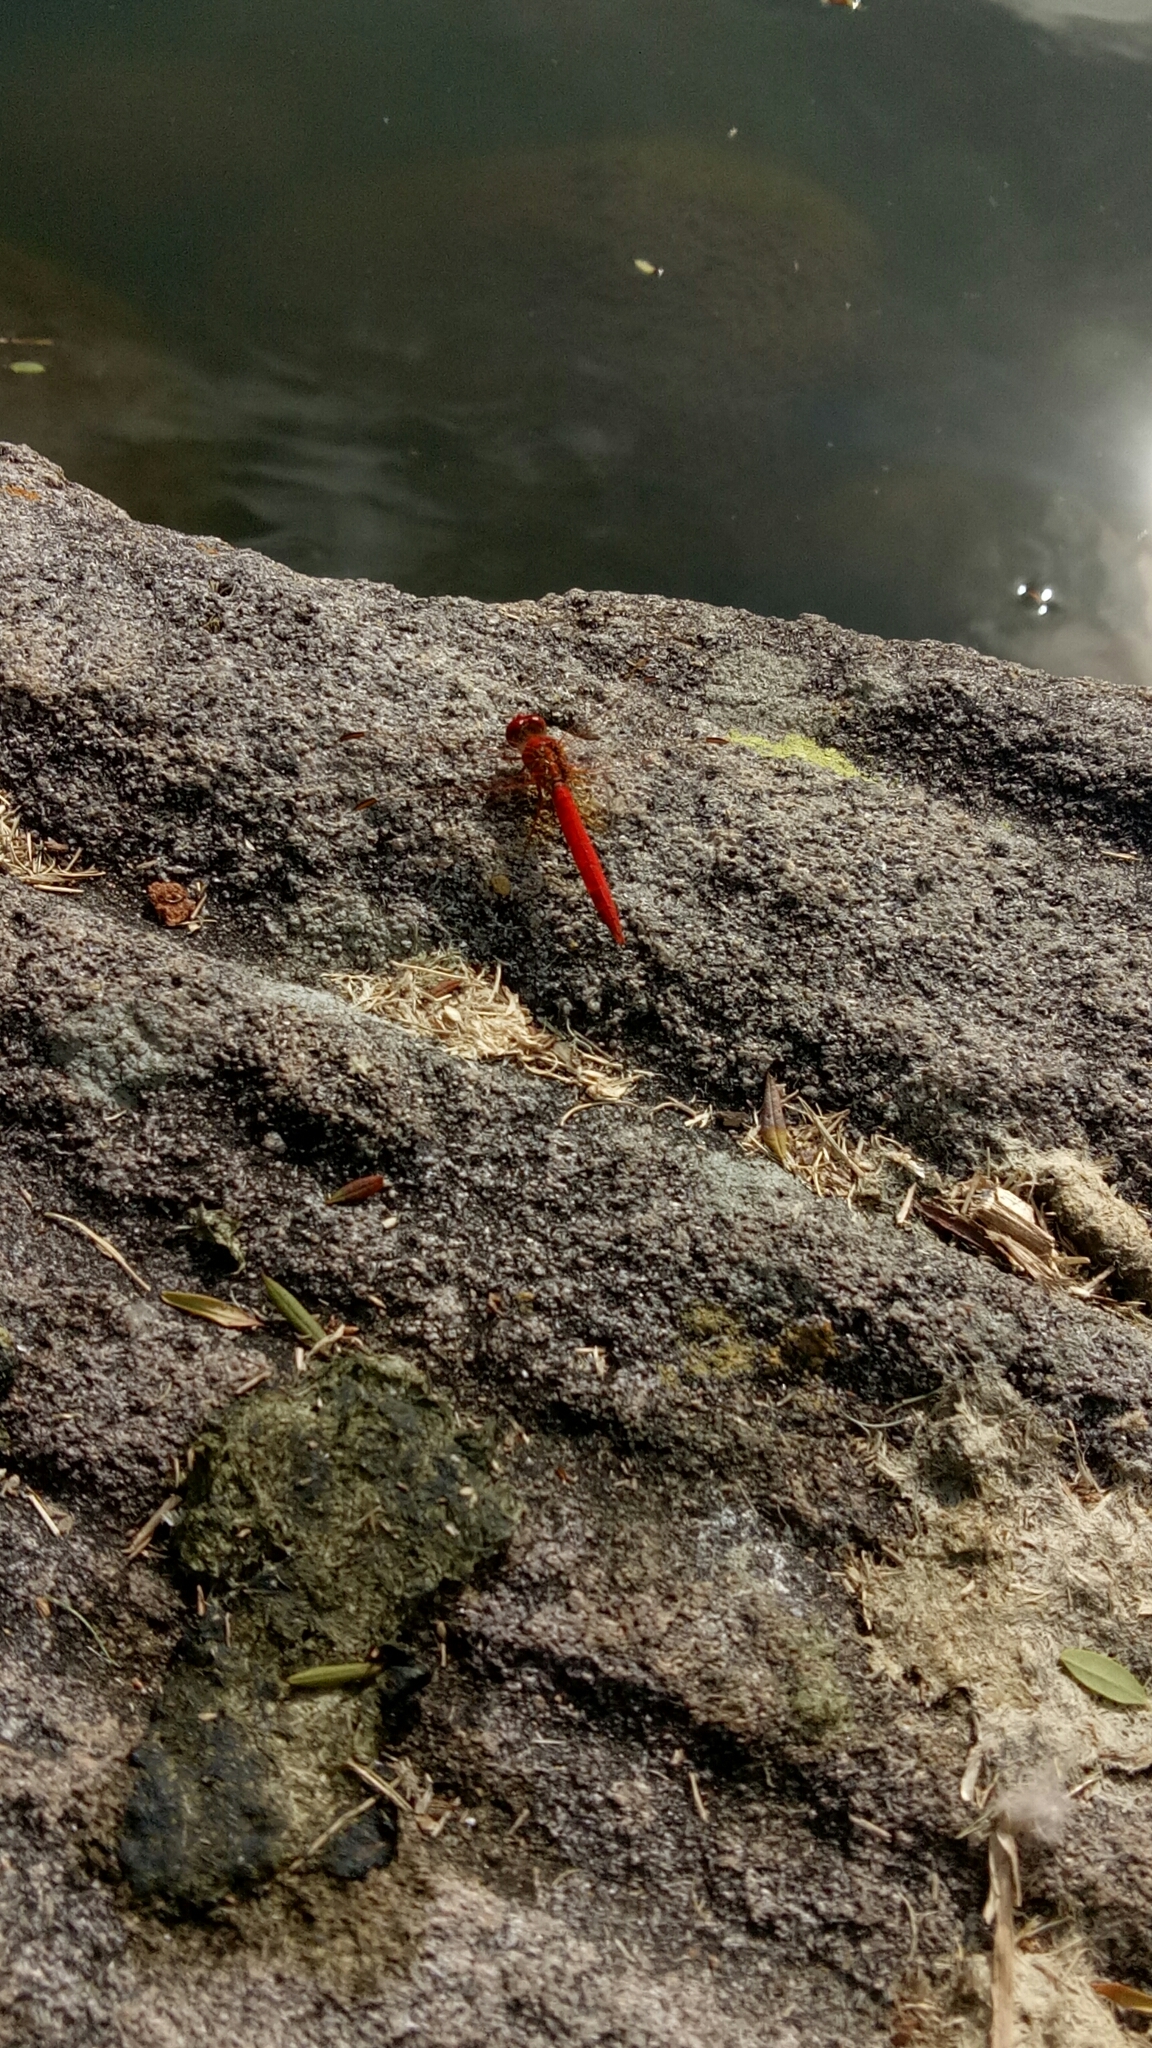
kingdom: Animalia
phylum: Arthropoda
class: Insecta
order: Odonata
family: Libellulidae
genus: Diplacodes
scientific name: Diplacodes haematodes
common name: Scarlet percher
